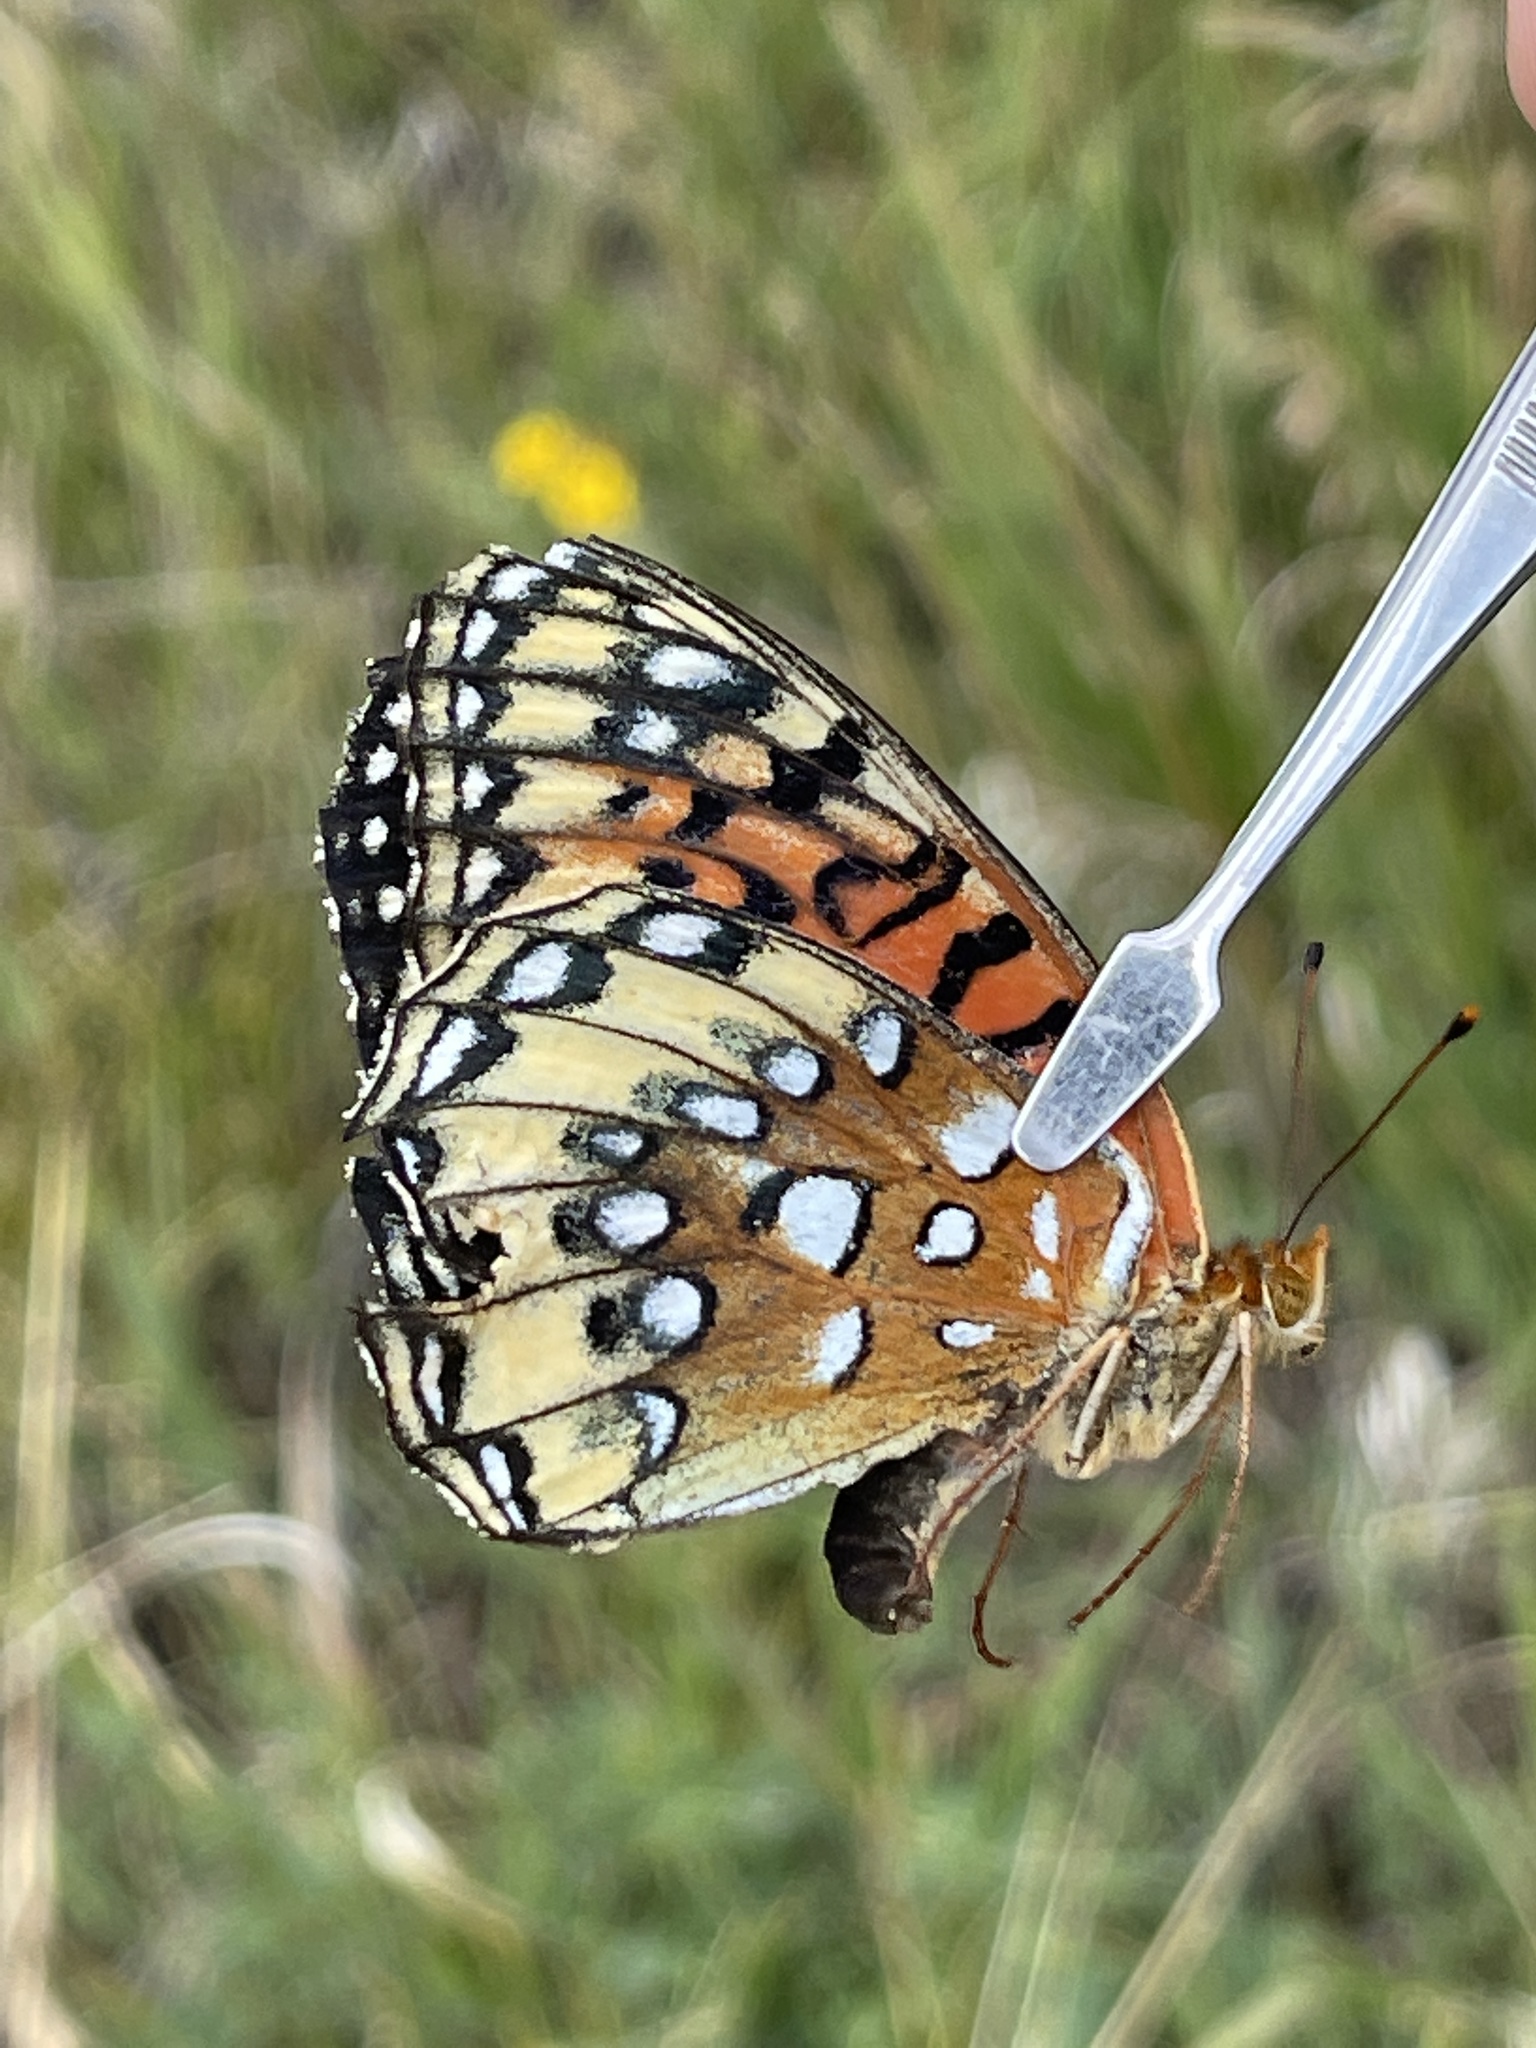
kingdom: Animalia
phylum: Arthropoda
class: Insecta
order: Lepidoptera
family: Nymphalidae
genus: Speyeria
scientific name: Speyeria nokomis
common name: Nokomis fritillary
